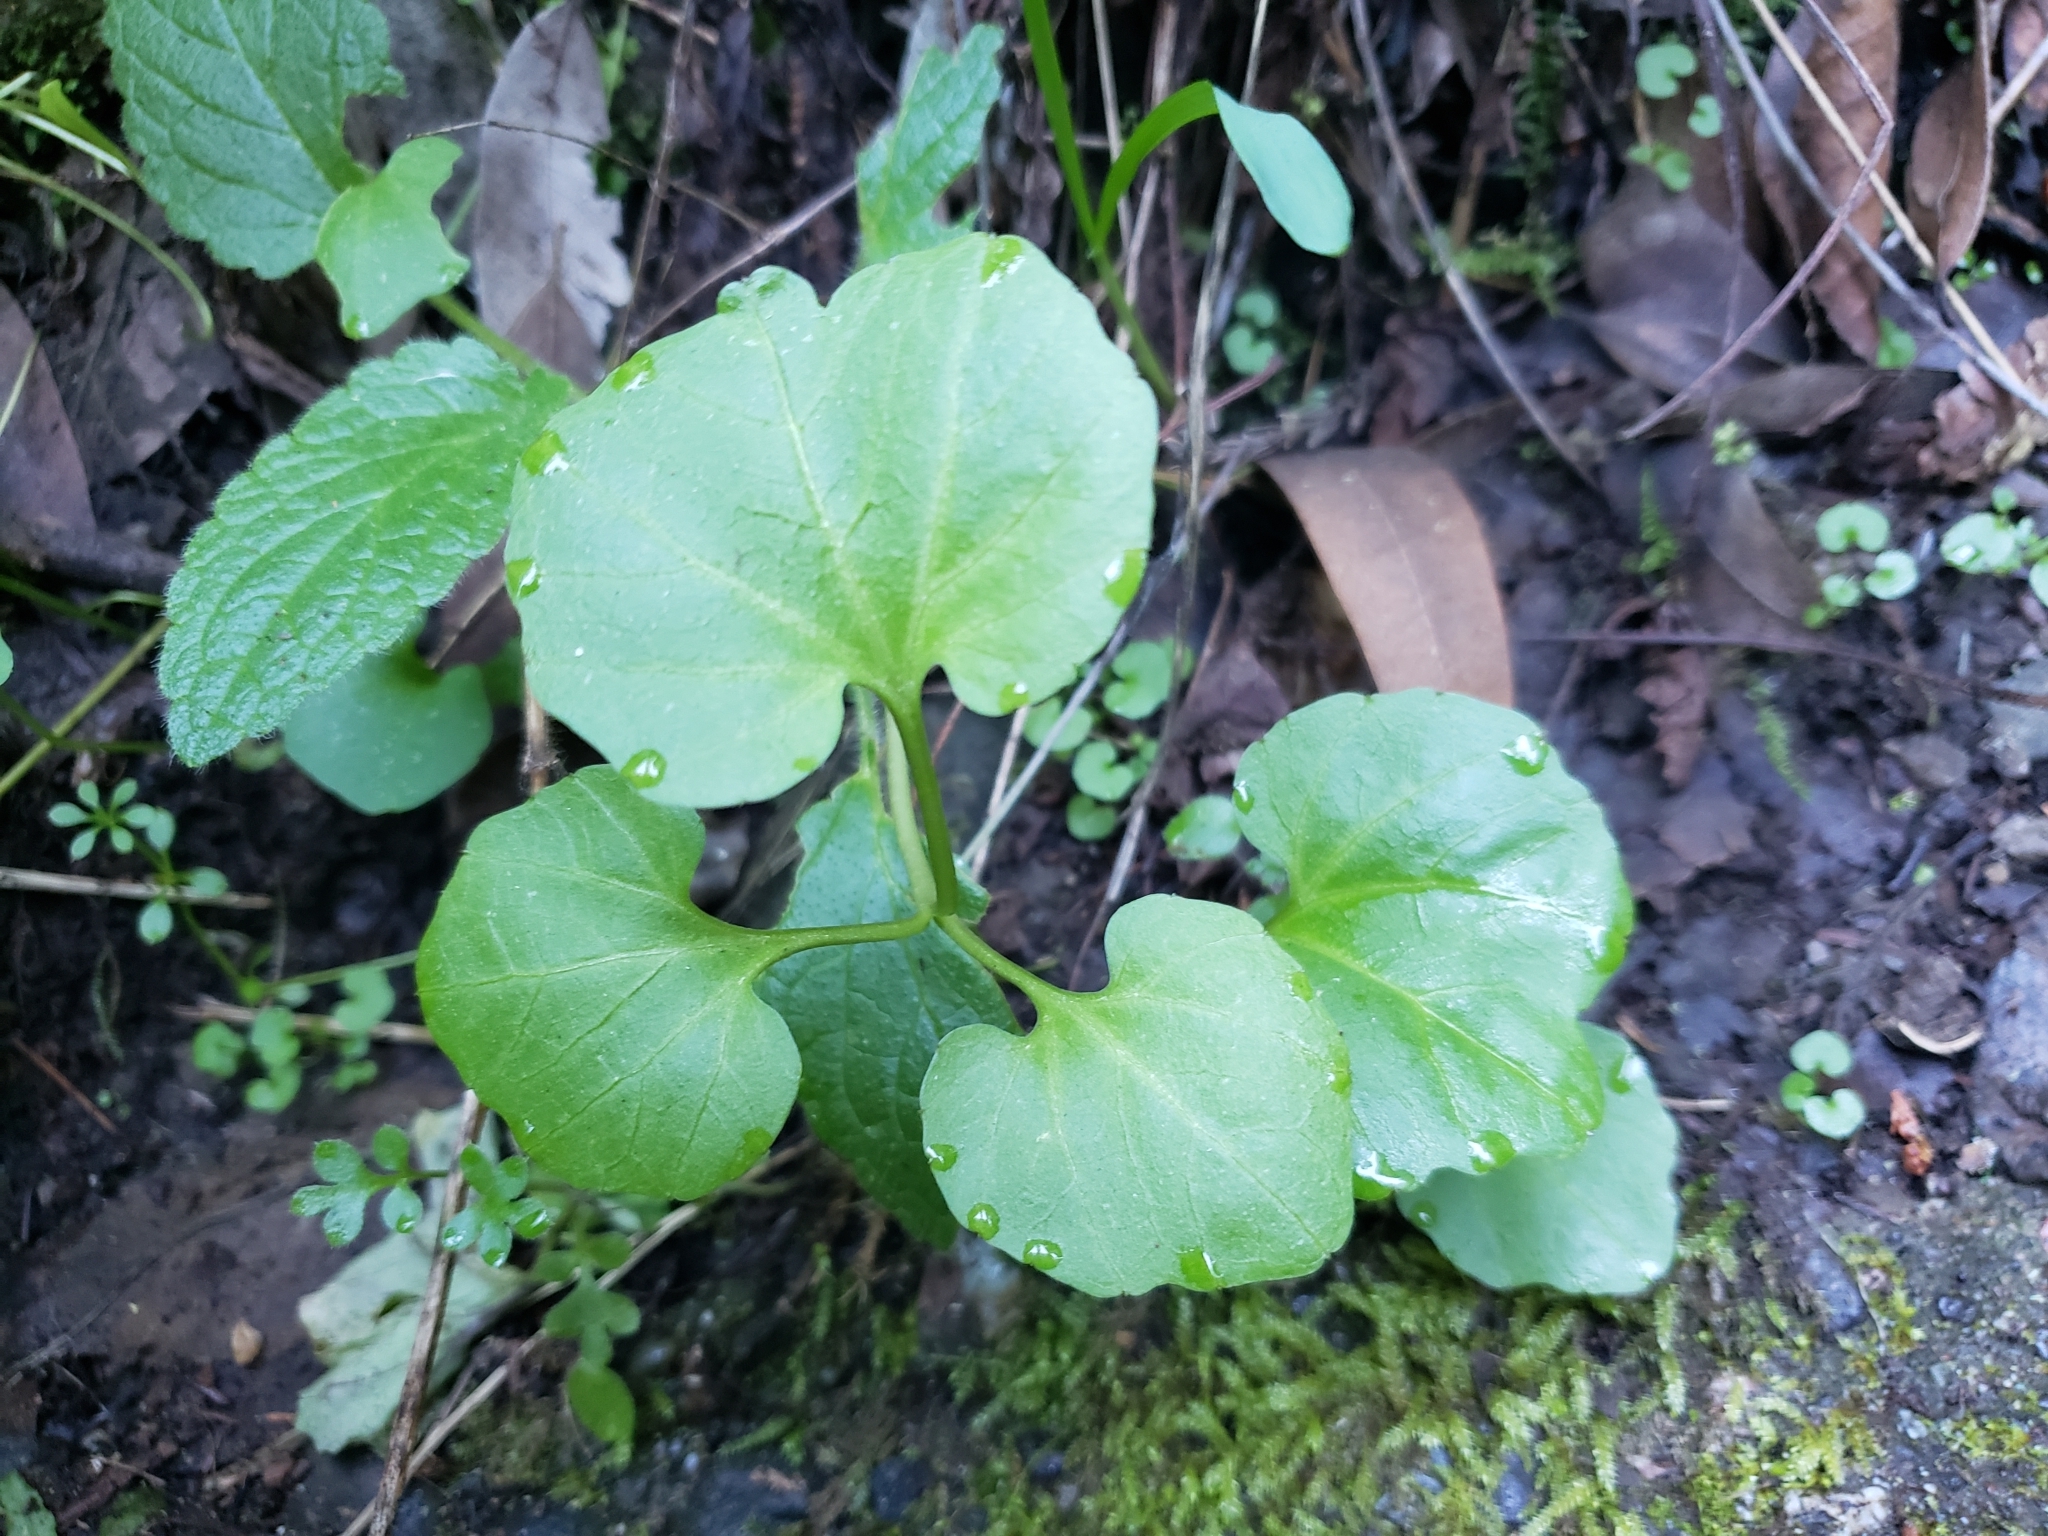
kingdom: Plantae
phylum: Tracheophyta
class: Magnoliopsida
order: Brassicales
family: Brassicaceae
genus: Cardamine
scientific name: Cardamine californica
